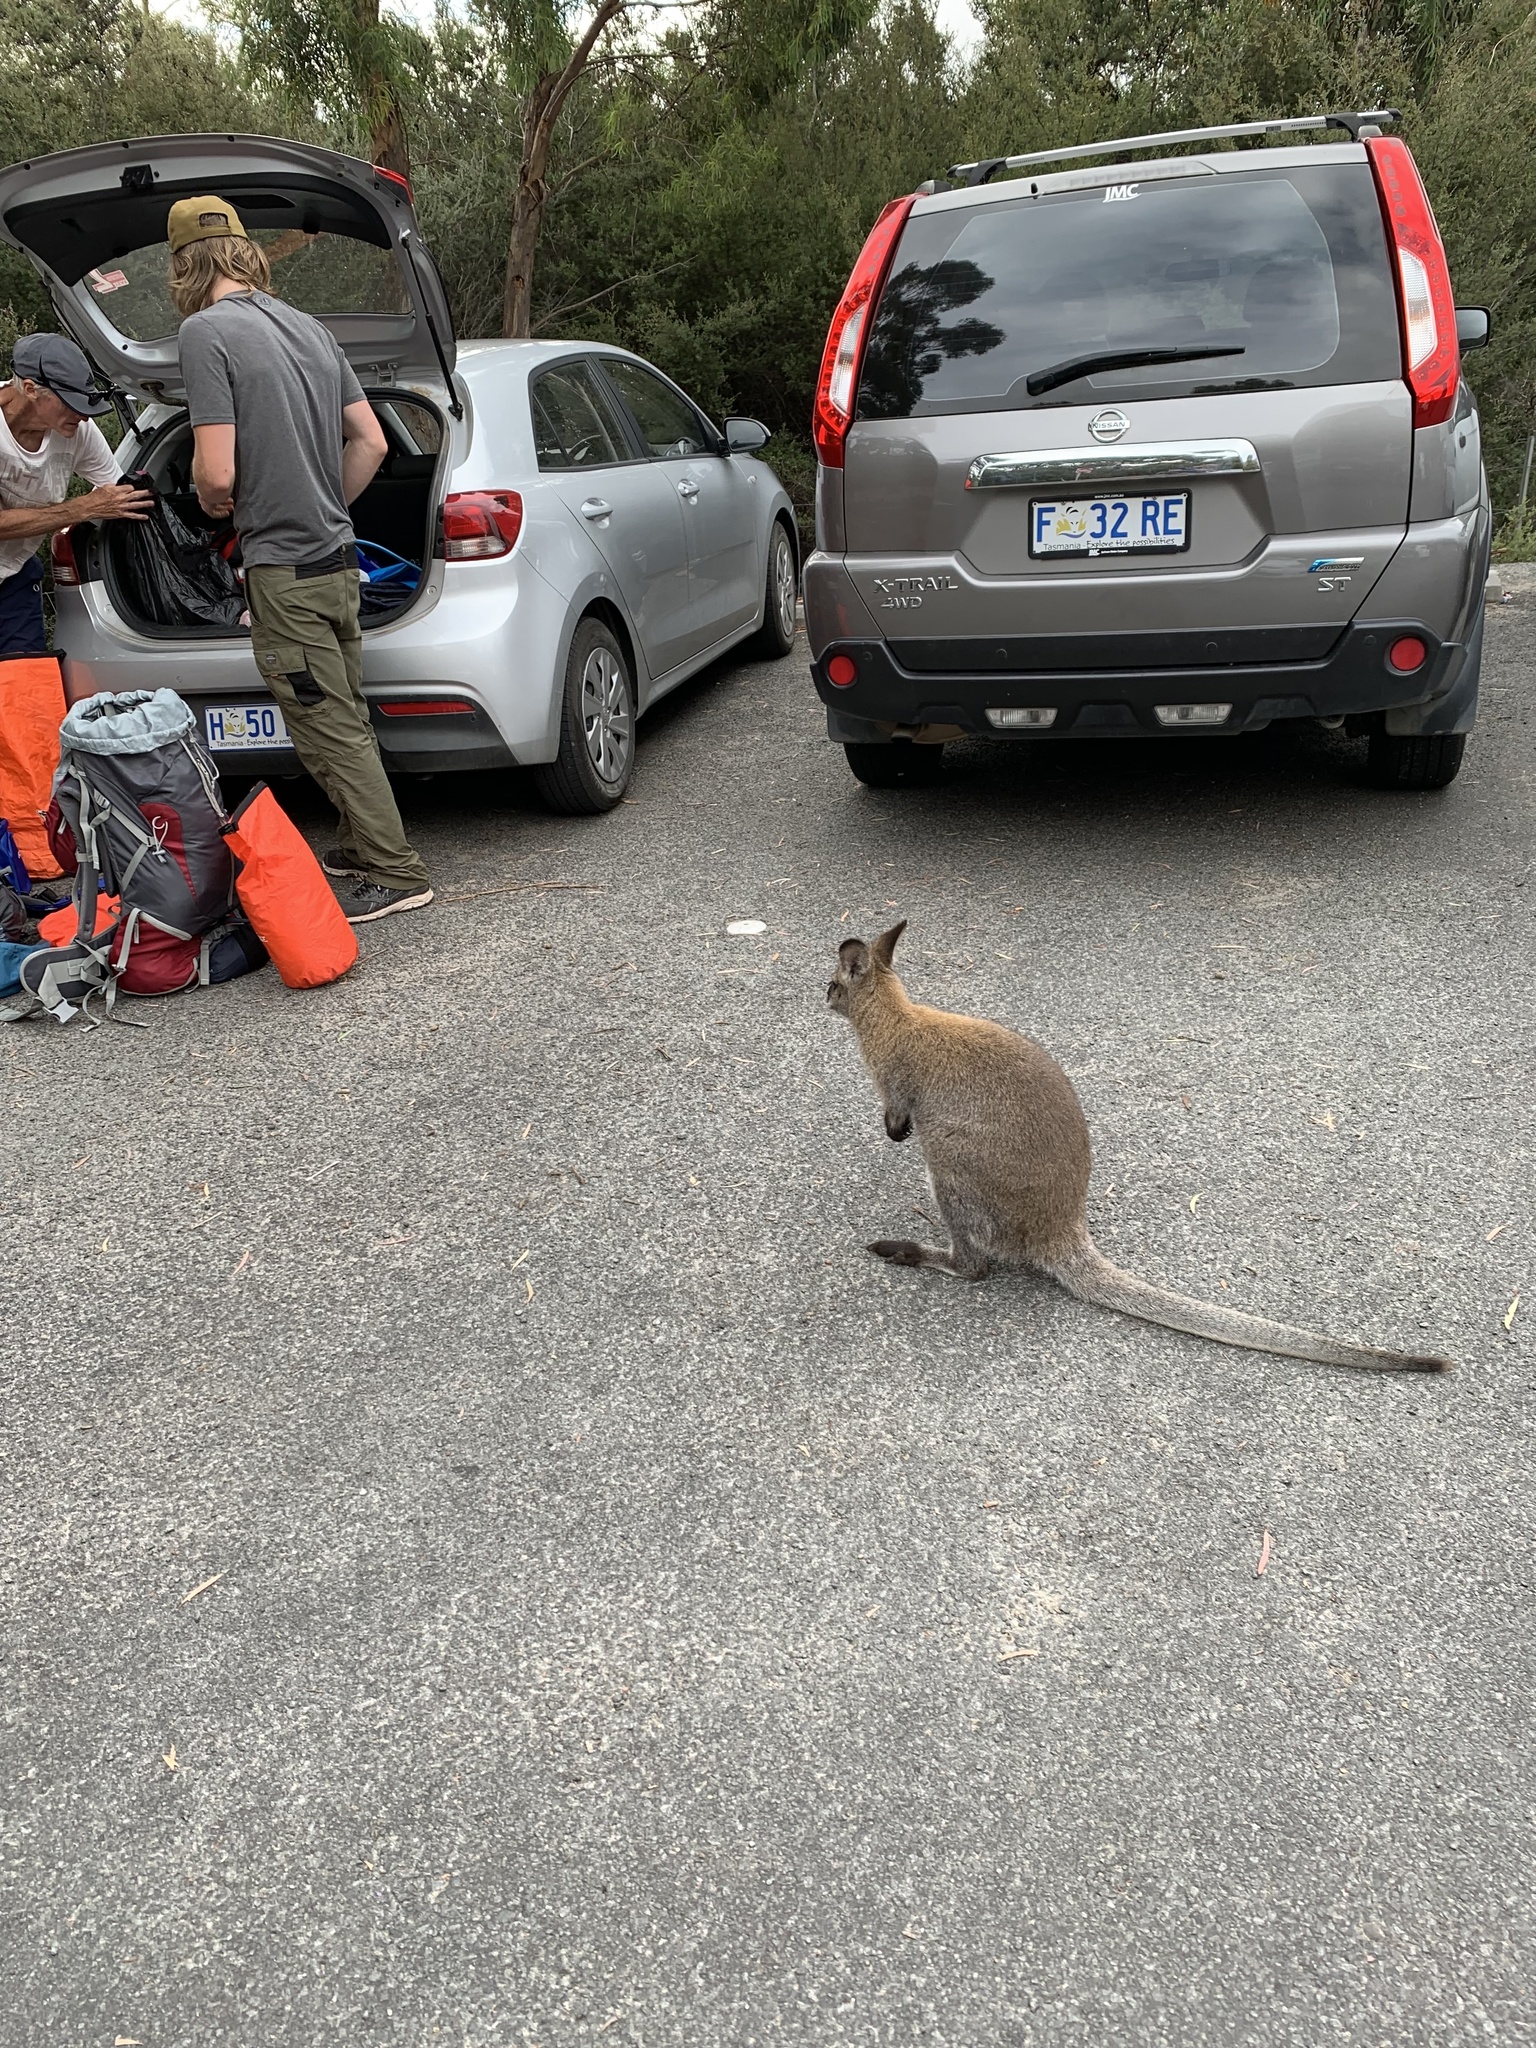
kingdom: Animalia
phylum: Chordata
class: Mammalia
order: Diprotodontia
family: Macropodidae
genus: Notamacropus
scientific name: Notamacropus rufogriseus
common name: Red-necked wallaby
